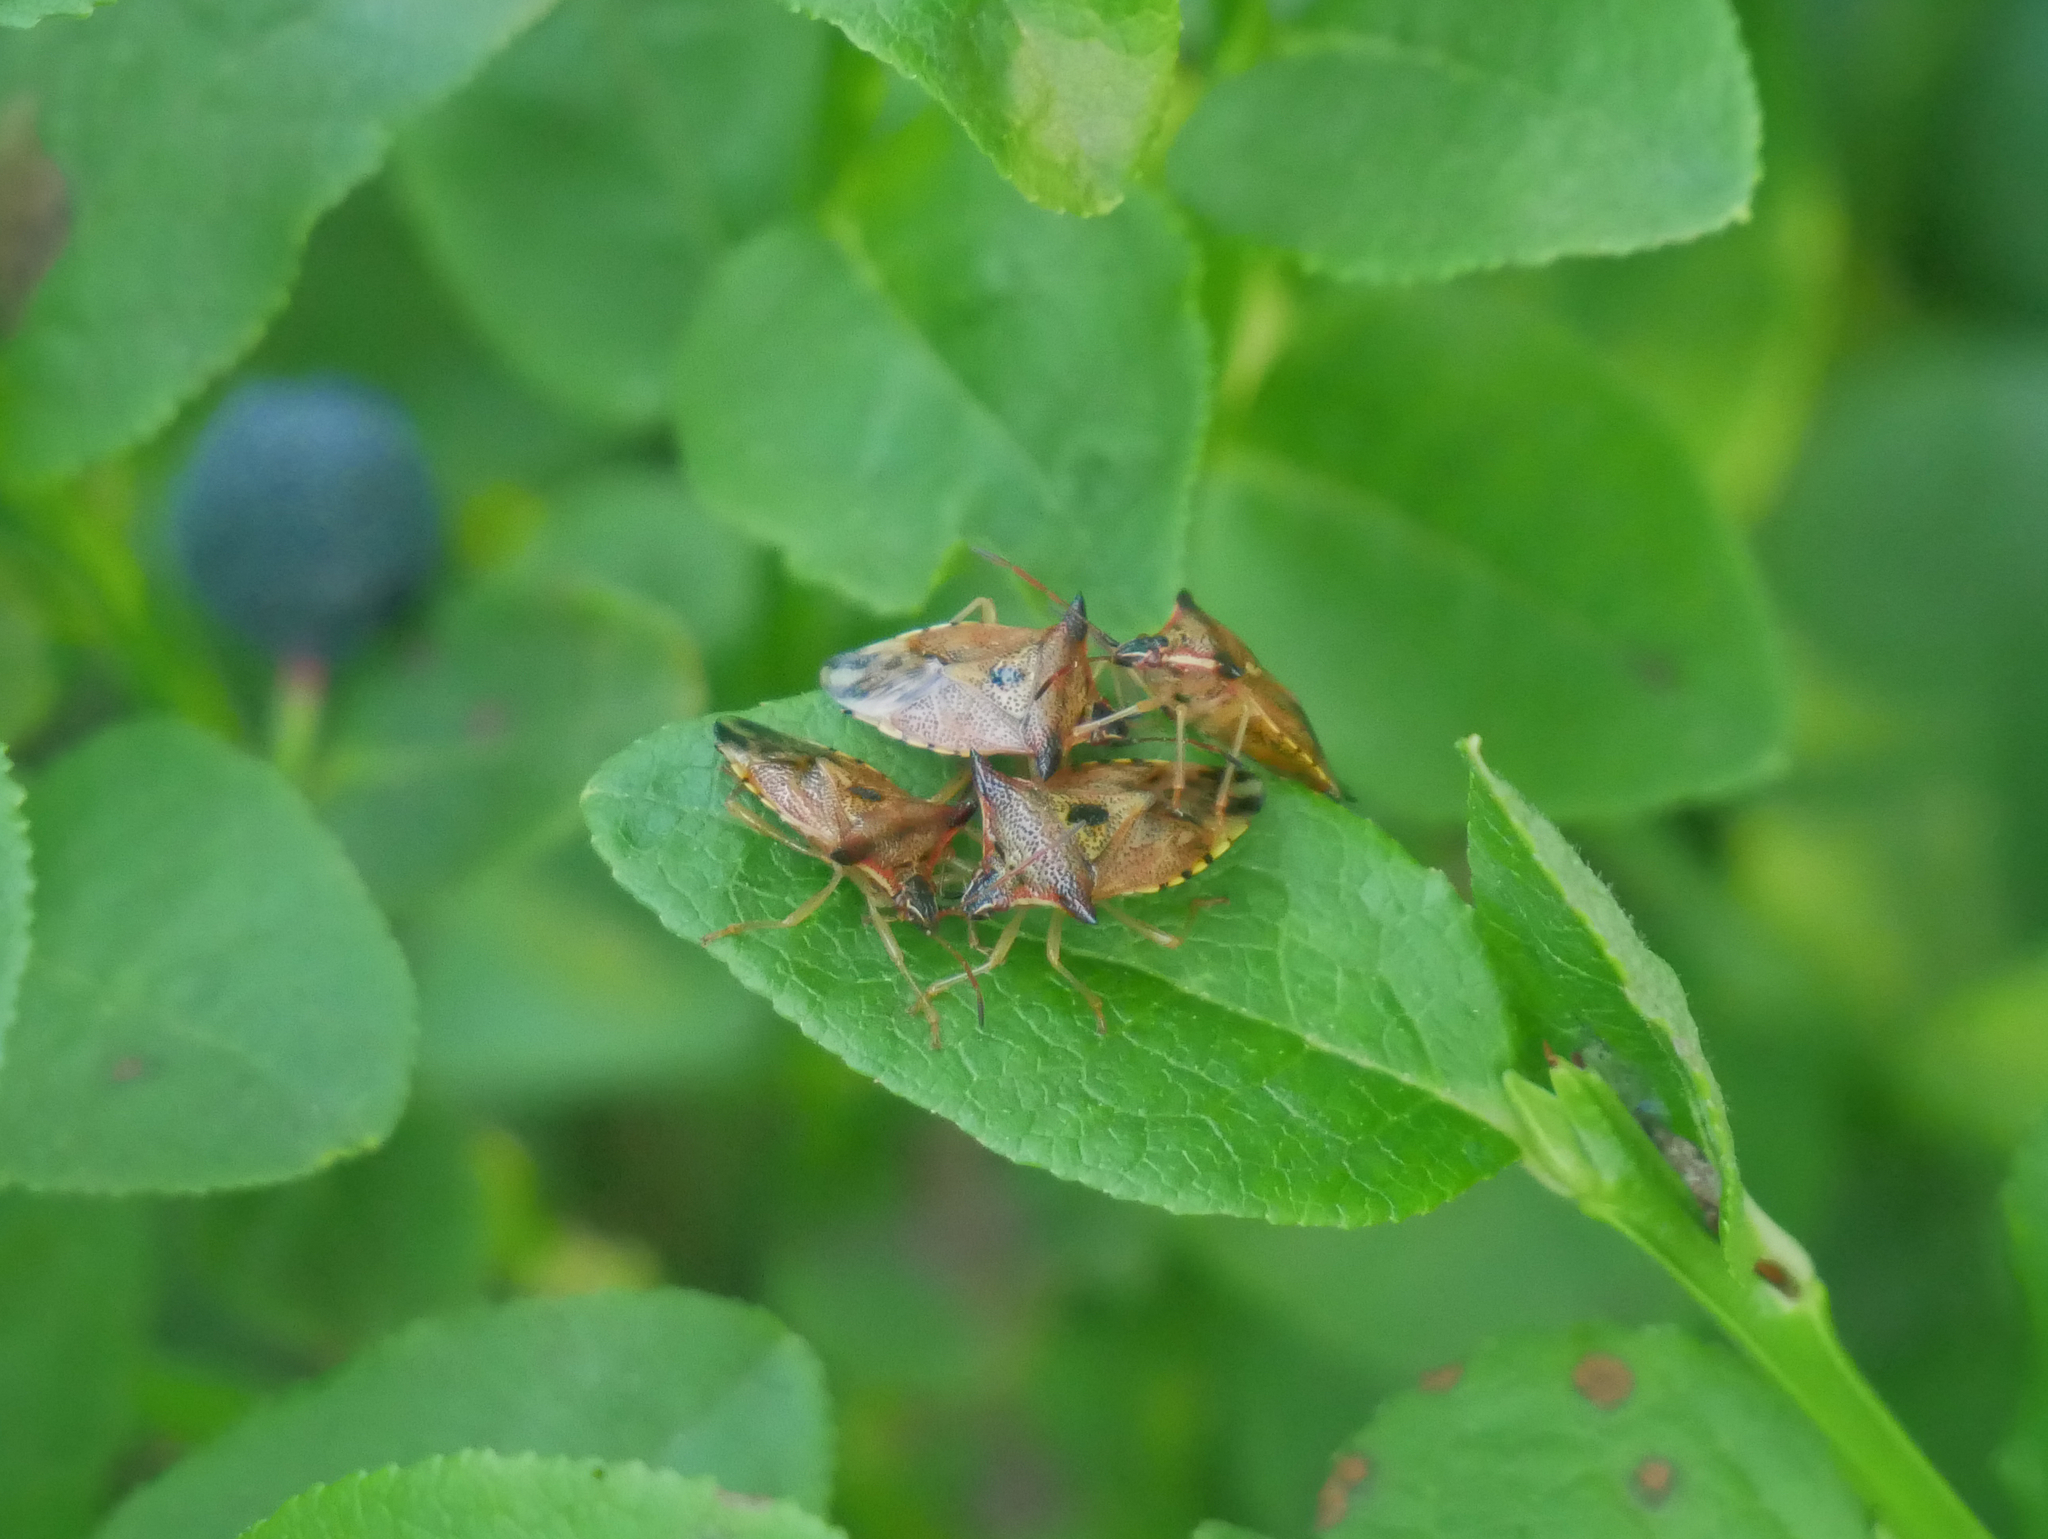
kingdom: Animalia
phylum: Arthropoda
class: Insecta
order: Hemiptera
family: Acanthosomatidae
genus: Elasmucha
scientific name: Elasmucha ferrugata
